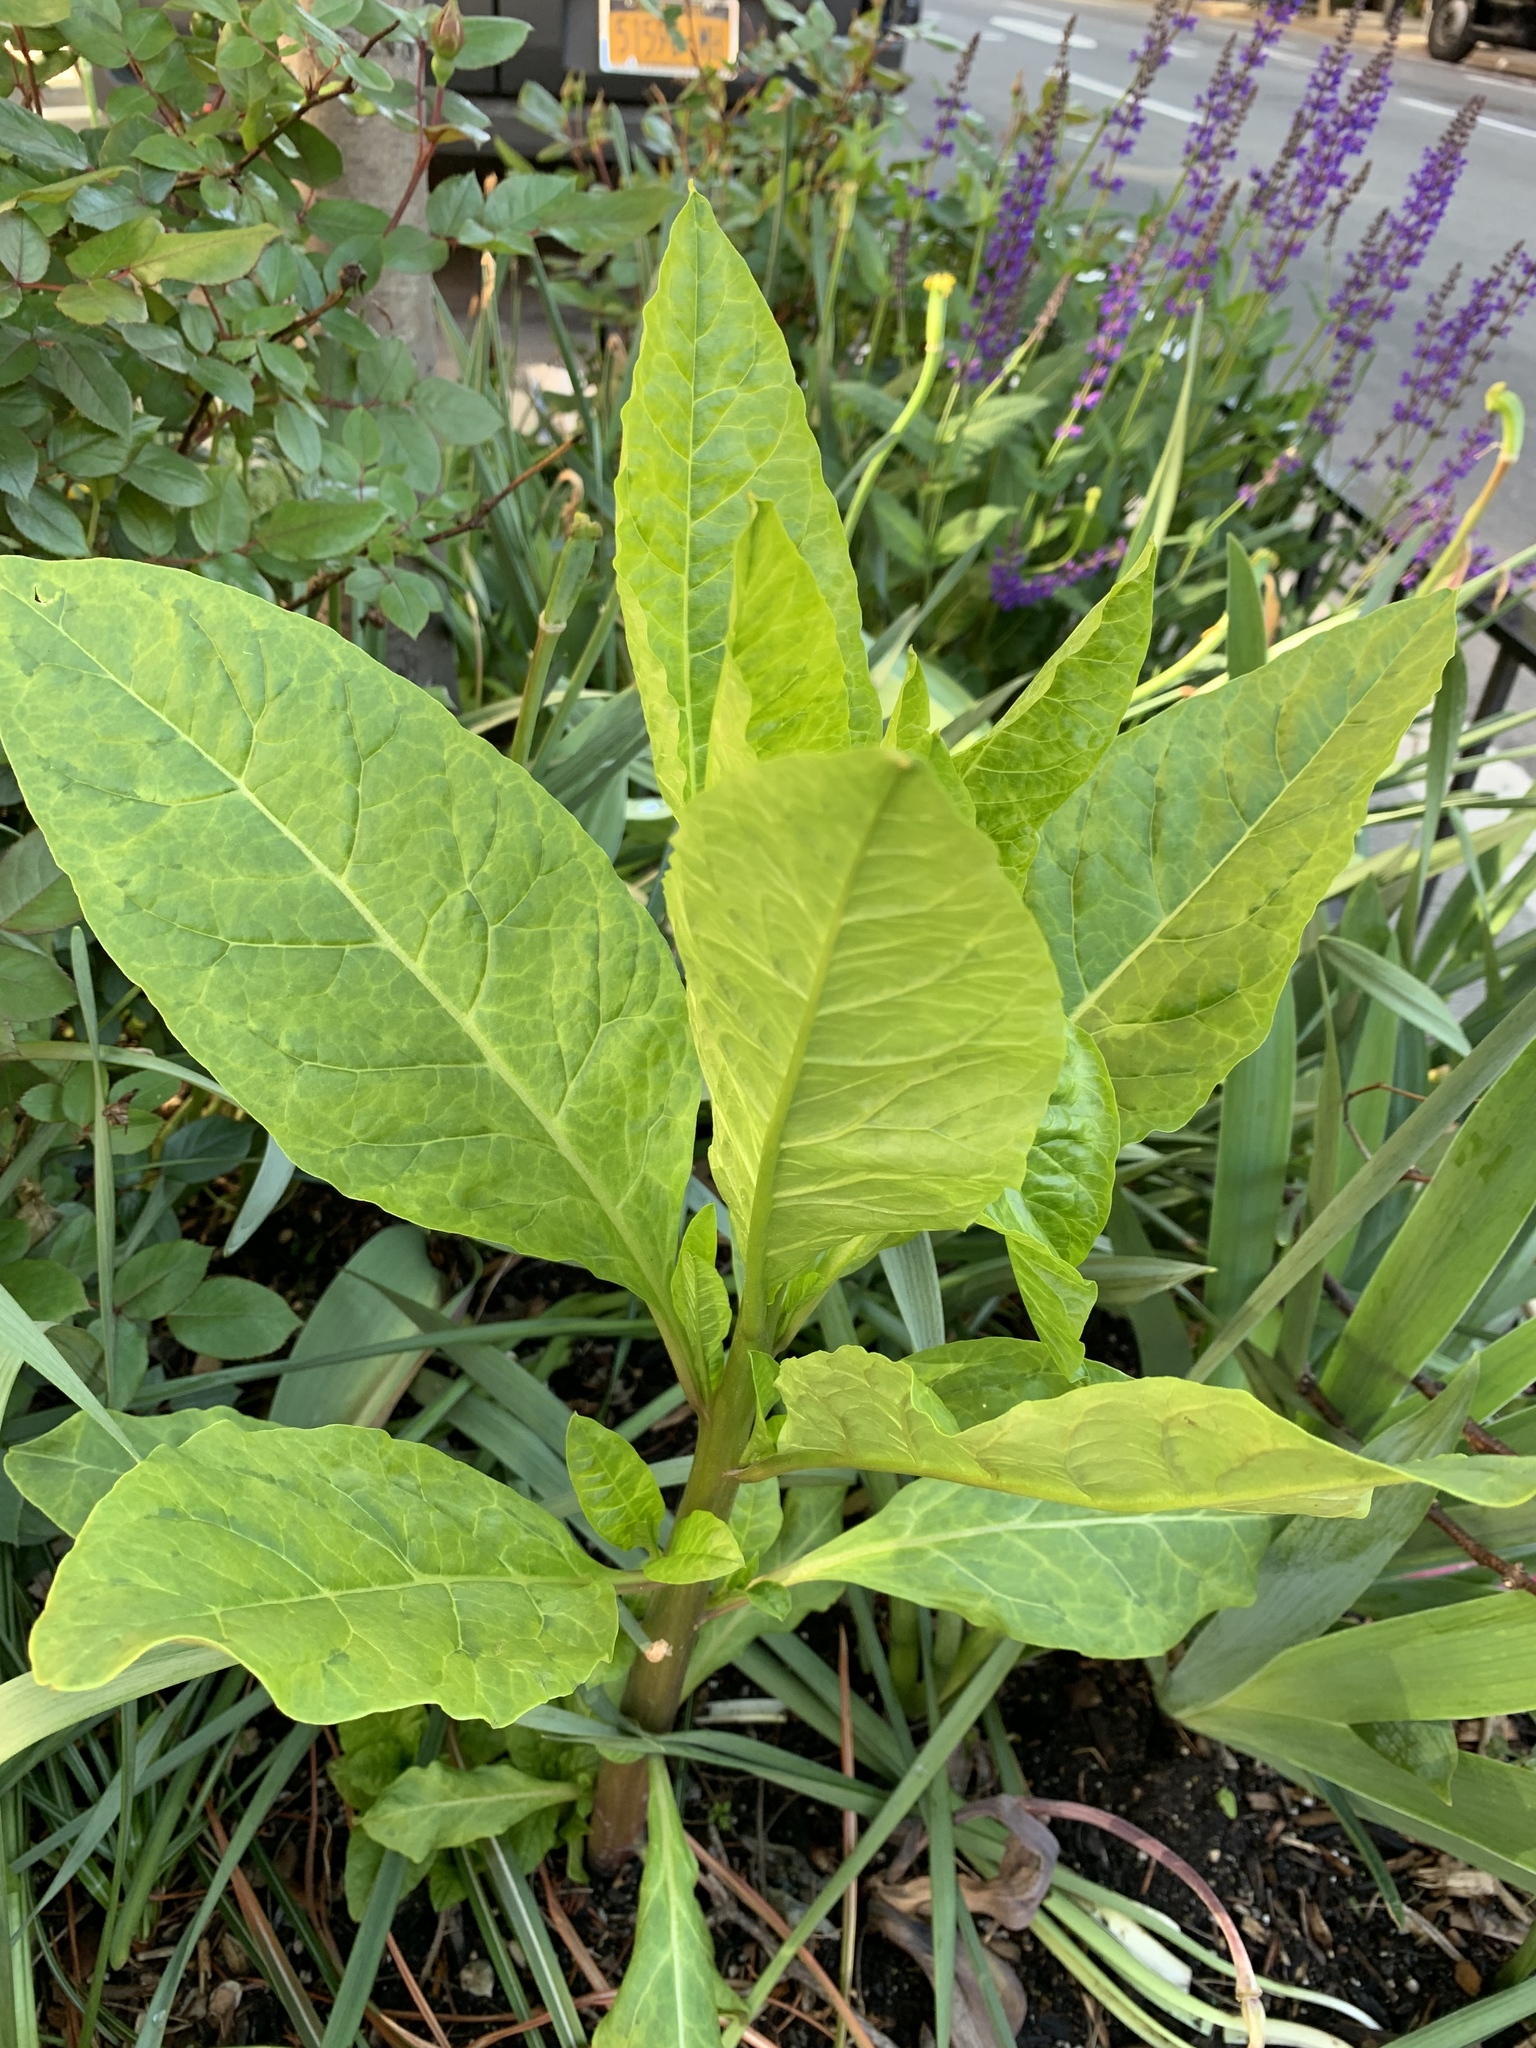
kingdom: Plantae
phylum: Tracheophyta
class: Magnoliopsida
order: Caryophyllales
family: Phytolaccaceae
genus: Phytolacca
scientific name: Phytolacca americana
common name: American pokeweed
